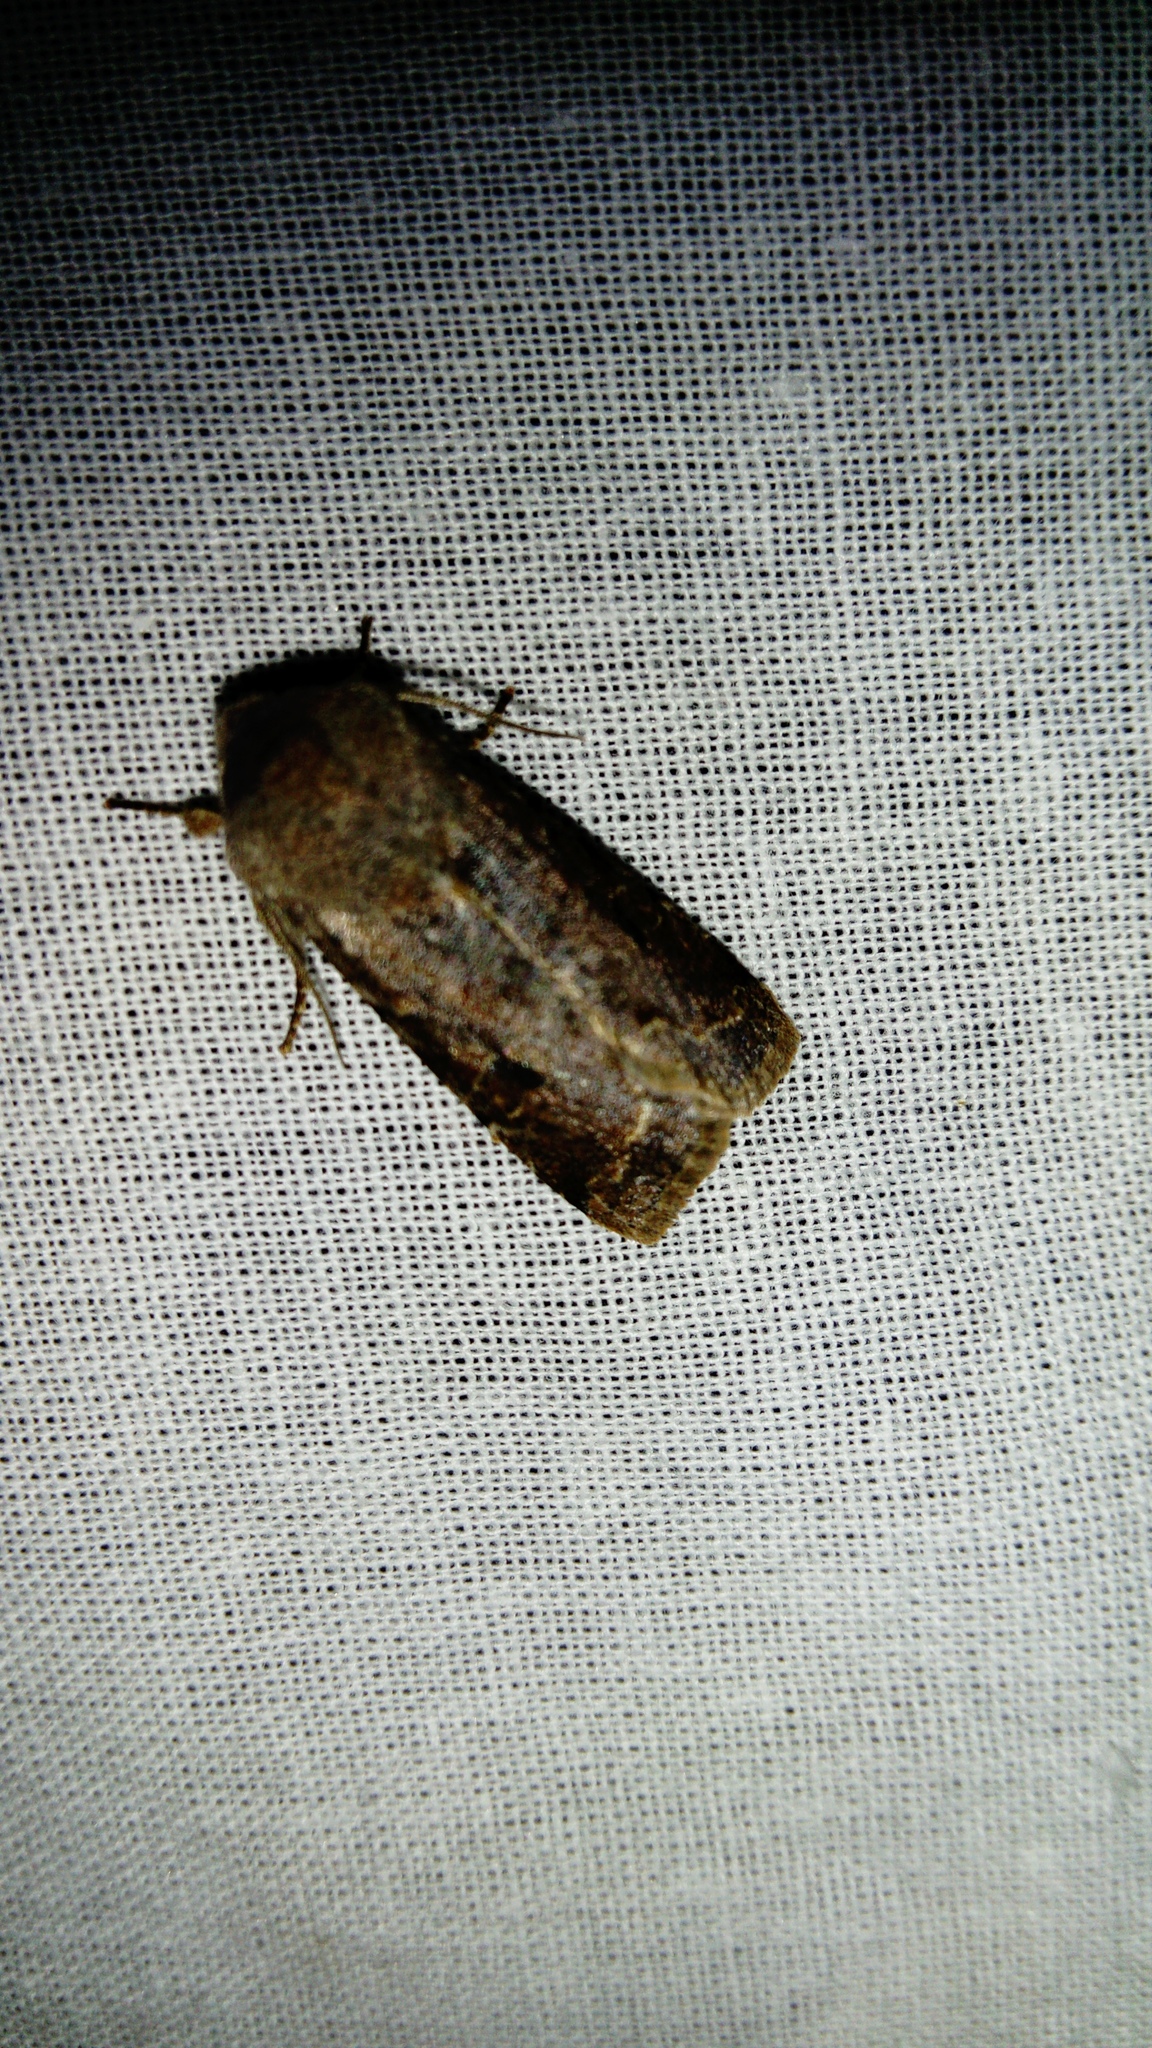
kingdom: Animalia
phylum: Arthropoda
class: Insecta
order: Lepidoptera
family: Noctuidae
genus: Orthosia
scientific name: Orthosia incerta
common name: Clouded drab
